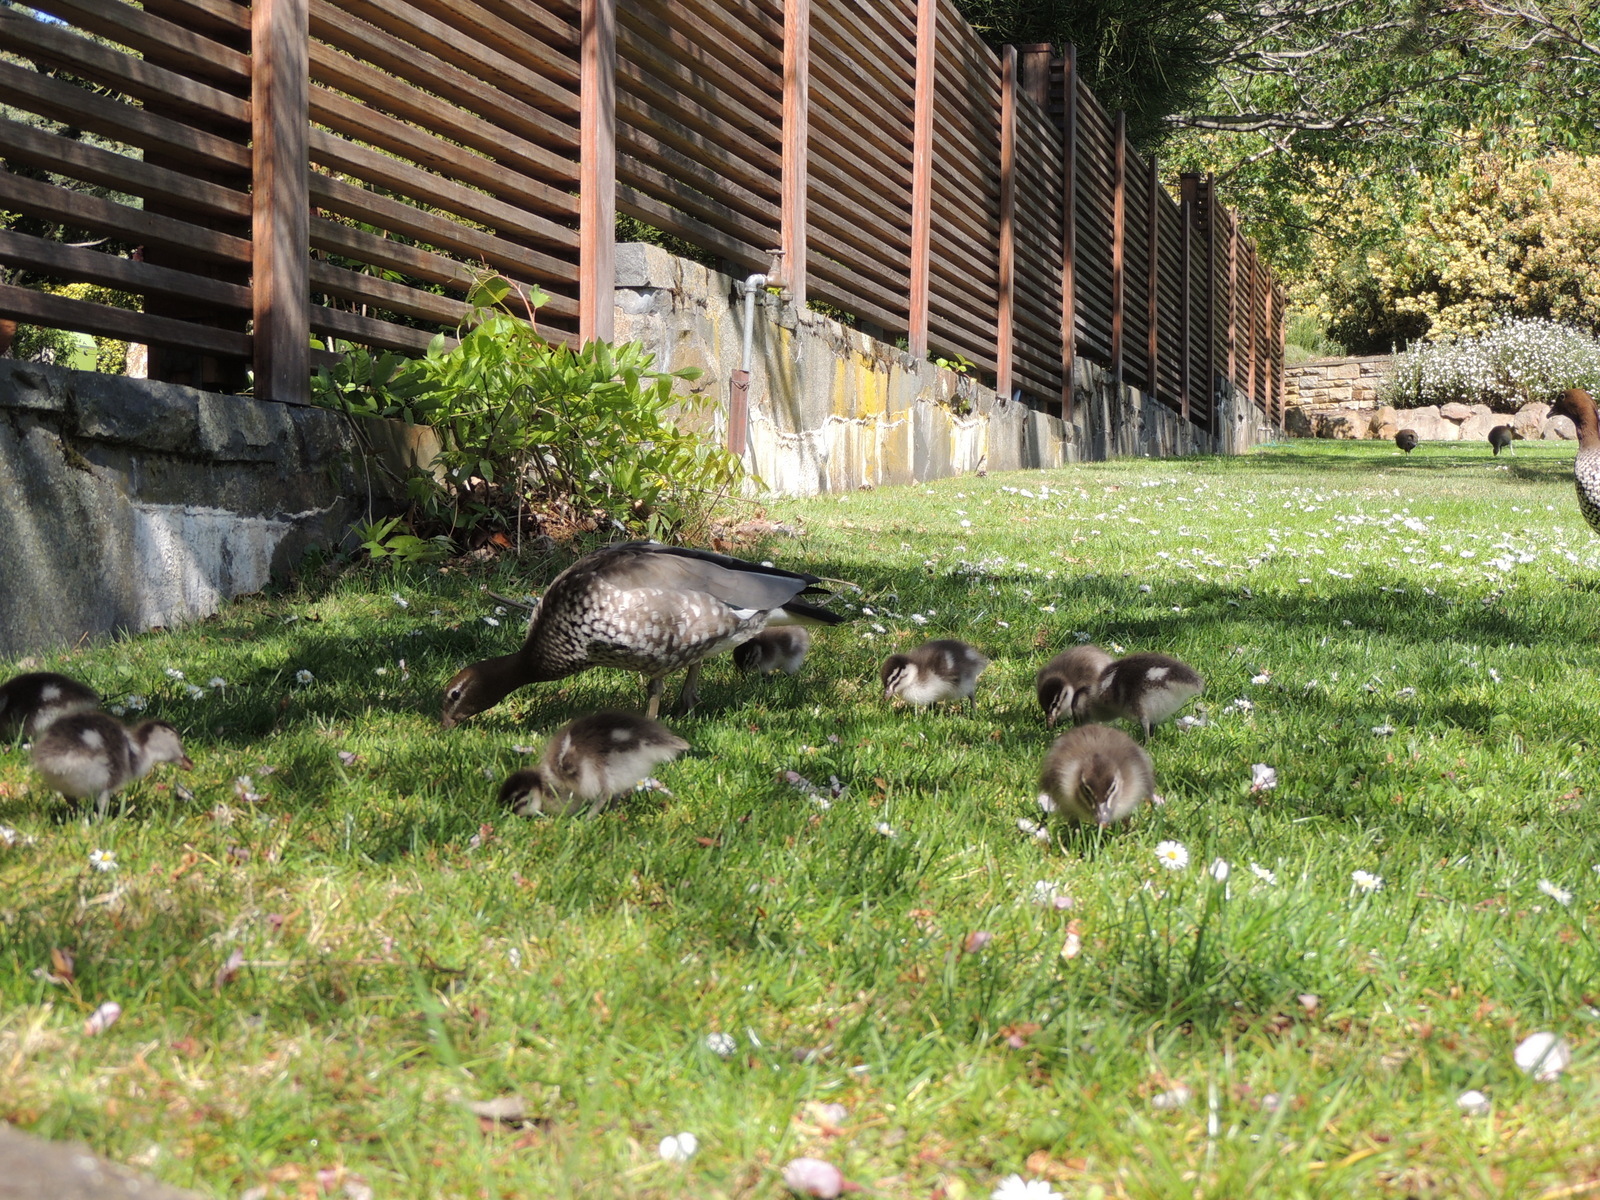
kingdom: Animalia
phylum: Chordata
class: Aves
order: Anseriformes
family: Anatidae
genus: Chenonetta
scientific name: Chenonetta jubata
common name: Maned duck
